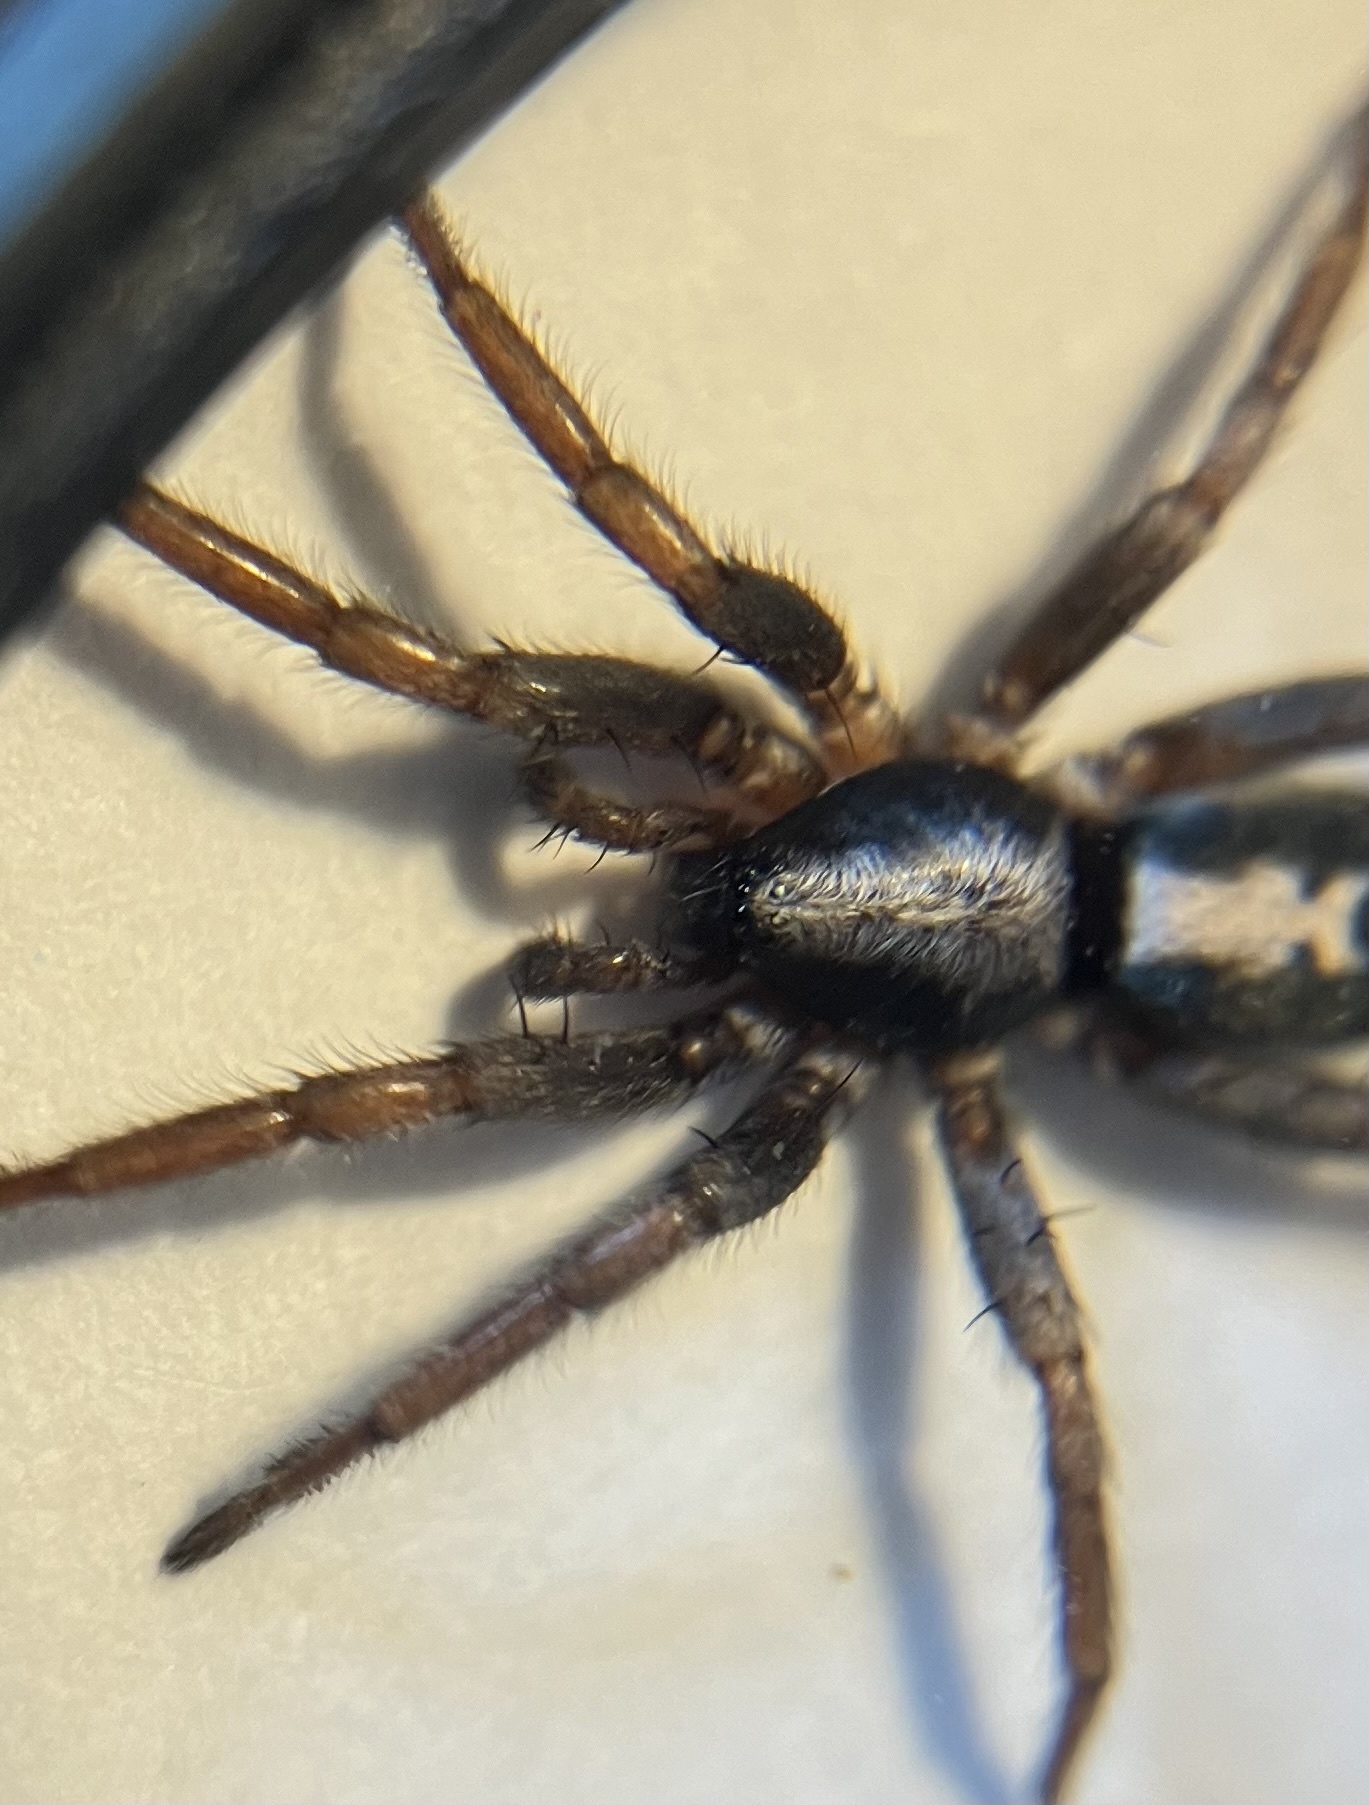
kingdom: Animalia
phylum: Arthropoda
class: Arachnida
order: Araneae
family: Gnaphosidae
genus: Herpyllus
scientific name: Herpyllus ecclesiasticus
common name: Eastern parson spider
